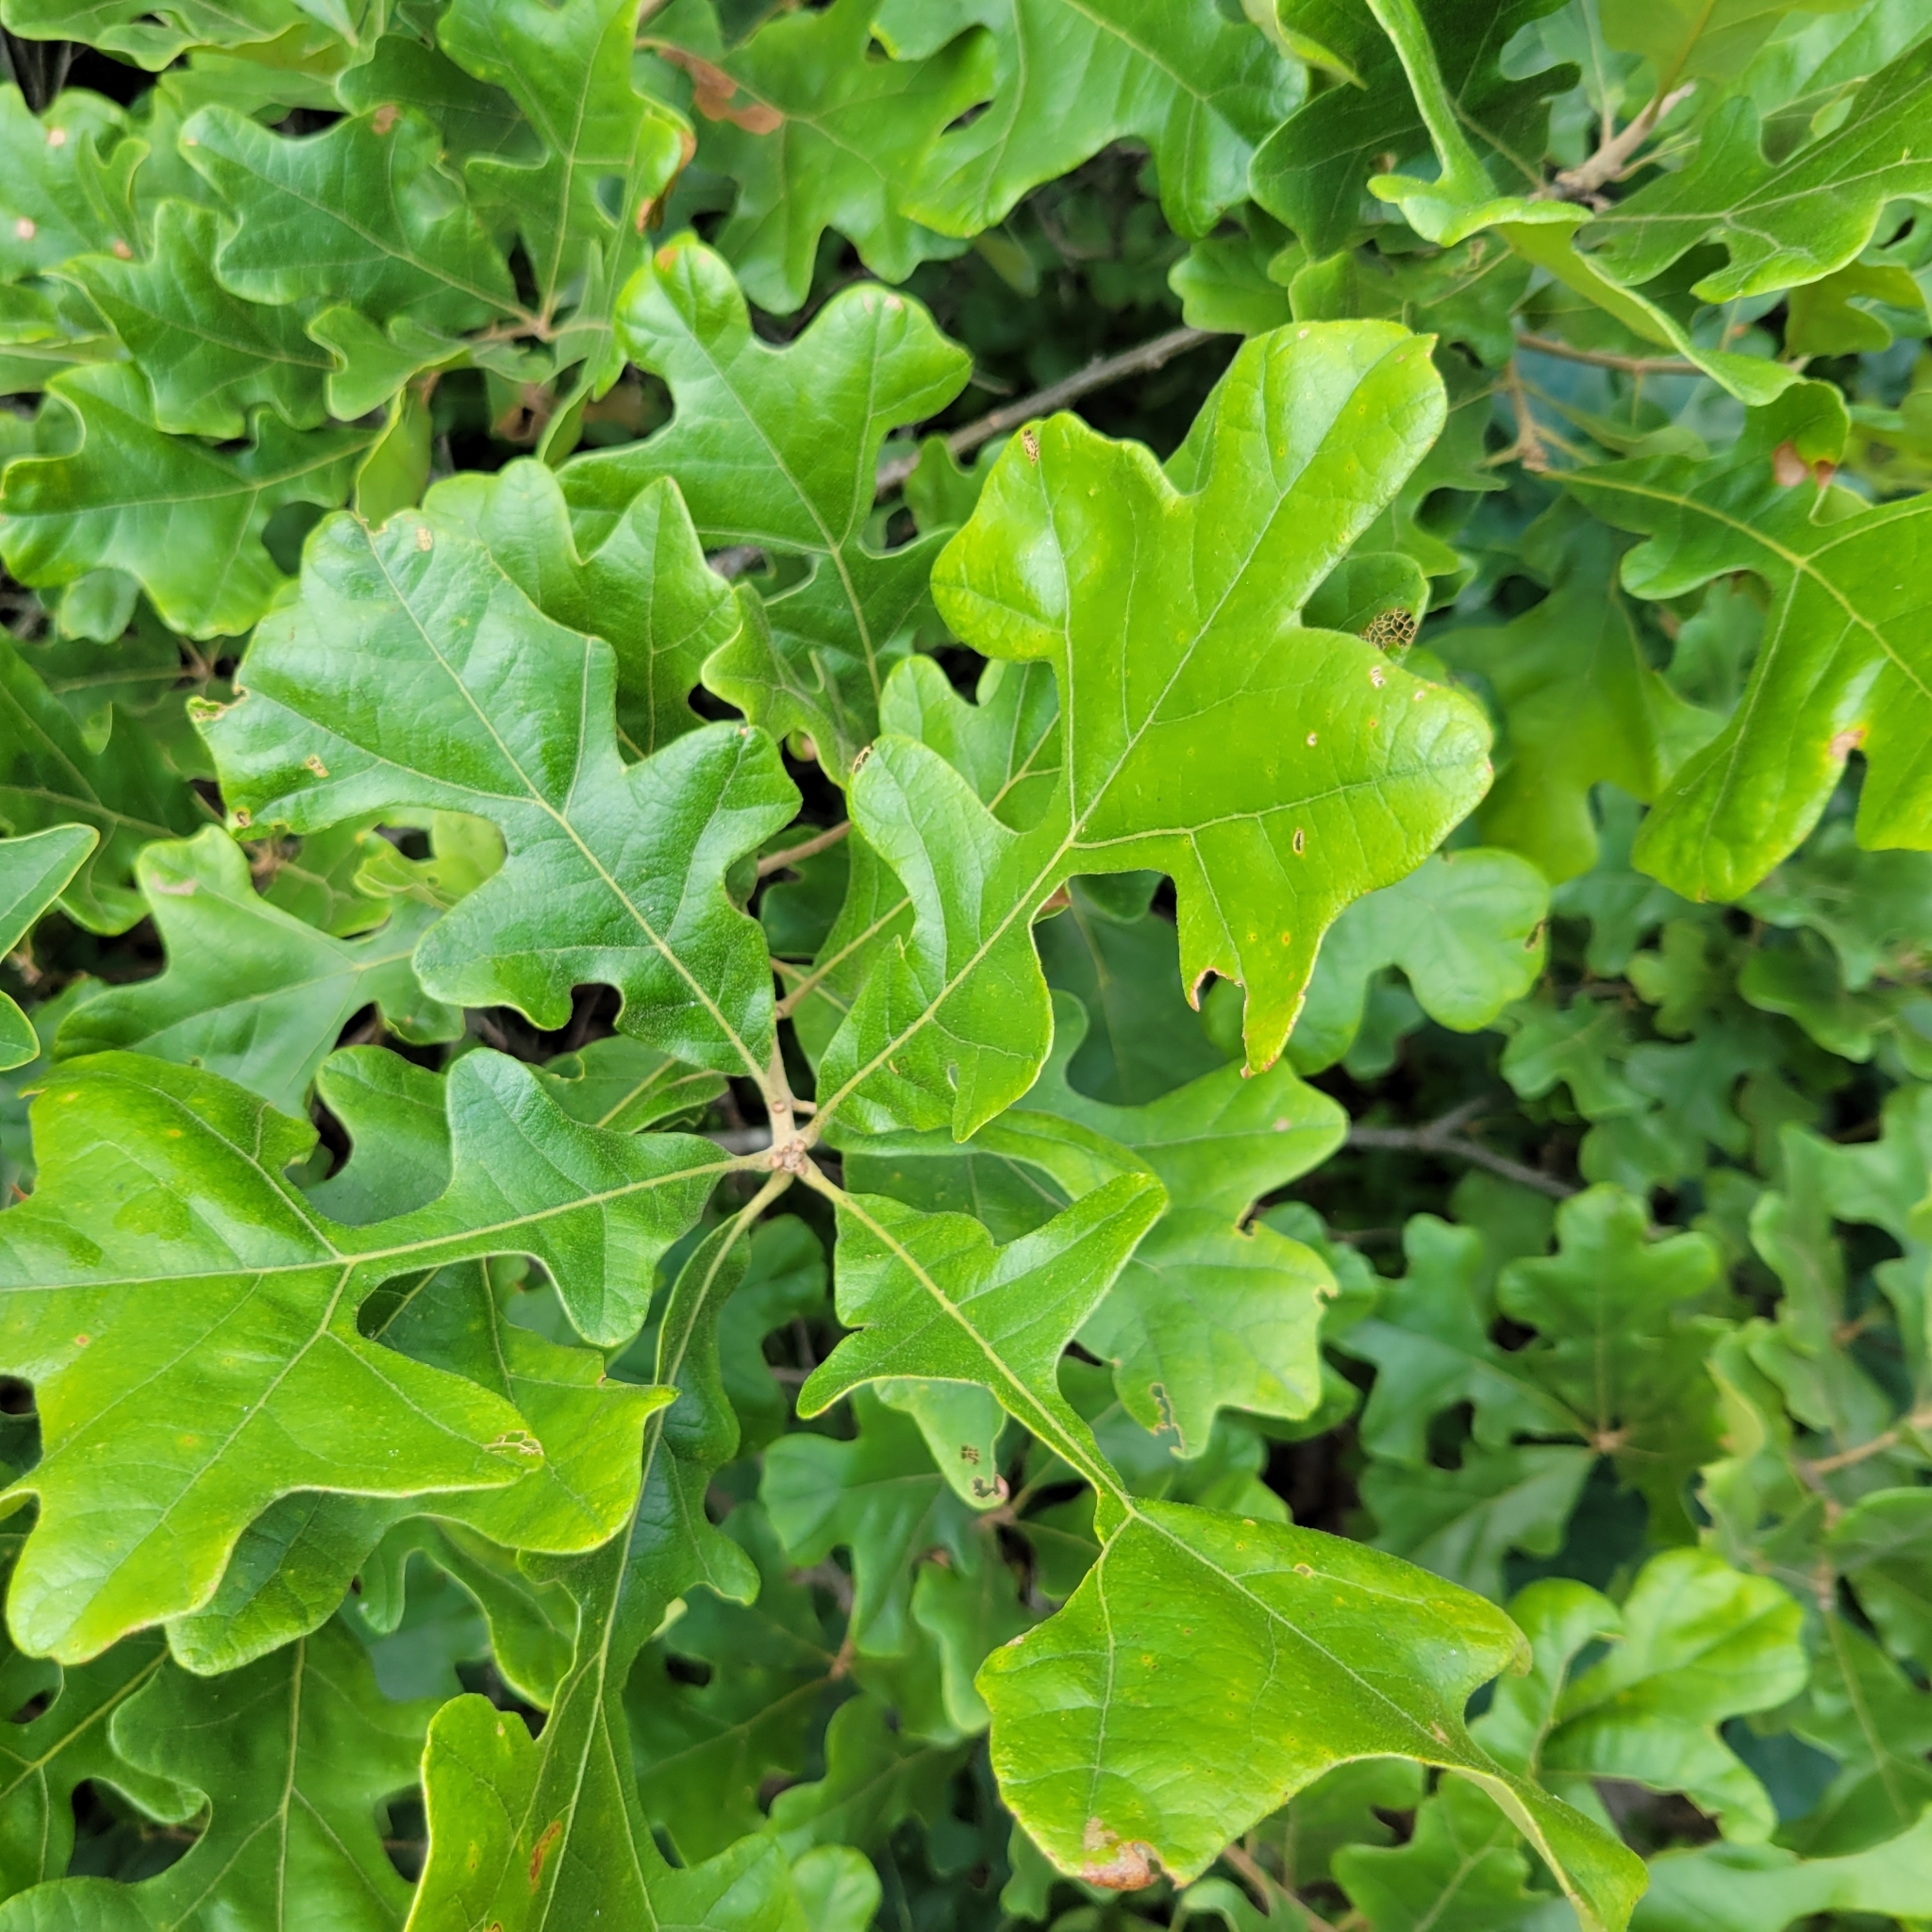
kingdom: Plantae
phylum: Tracheophyta
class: Magnoliopsida
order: Fagales
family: Fagaceae
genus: Quercus
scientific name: Quercus stellata
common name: Post oak
